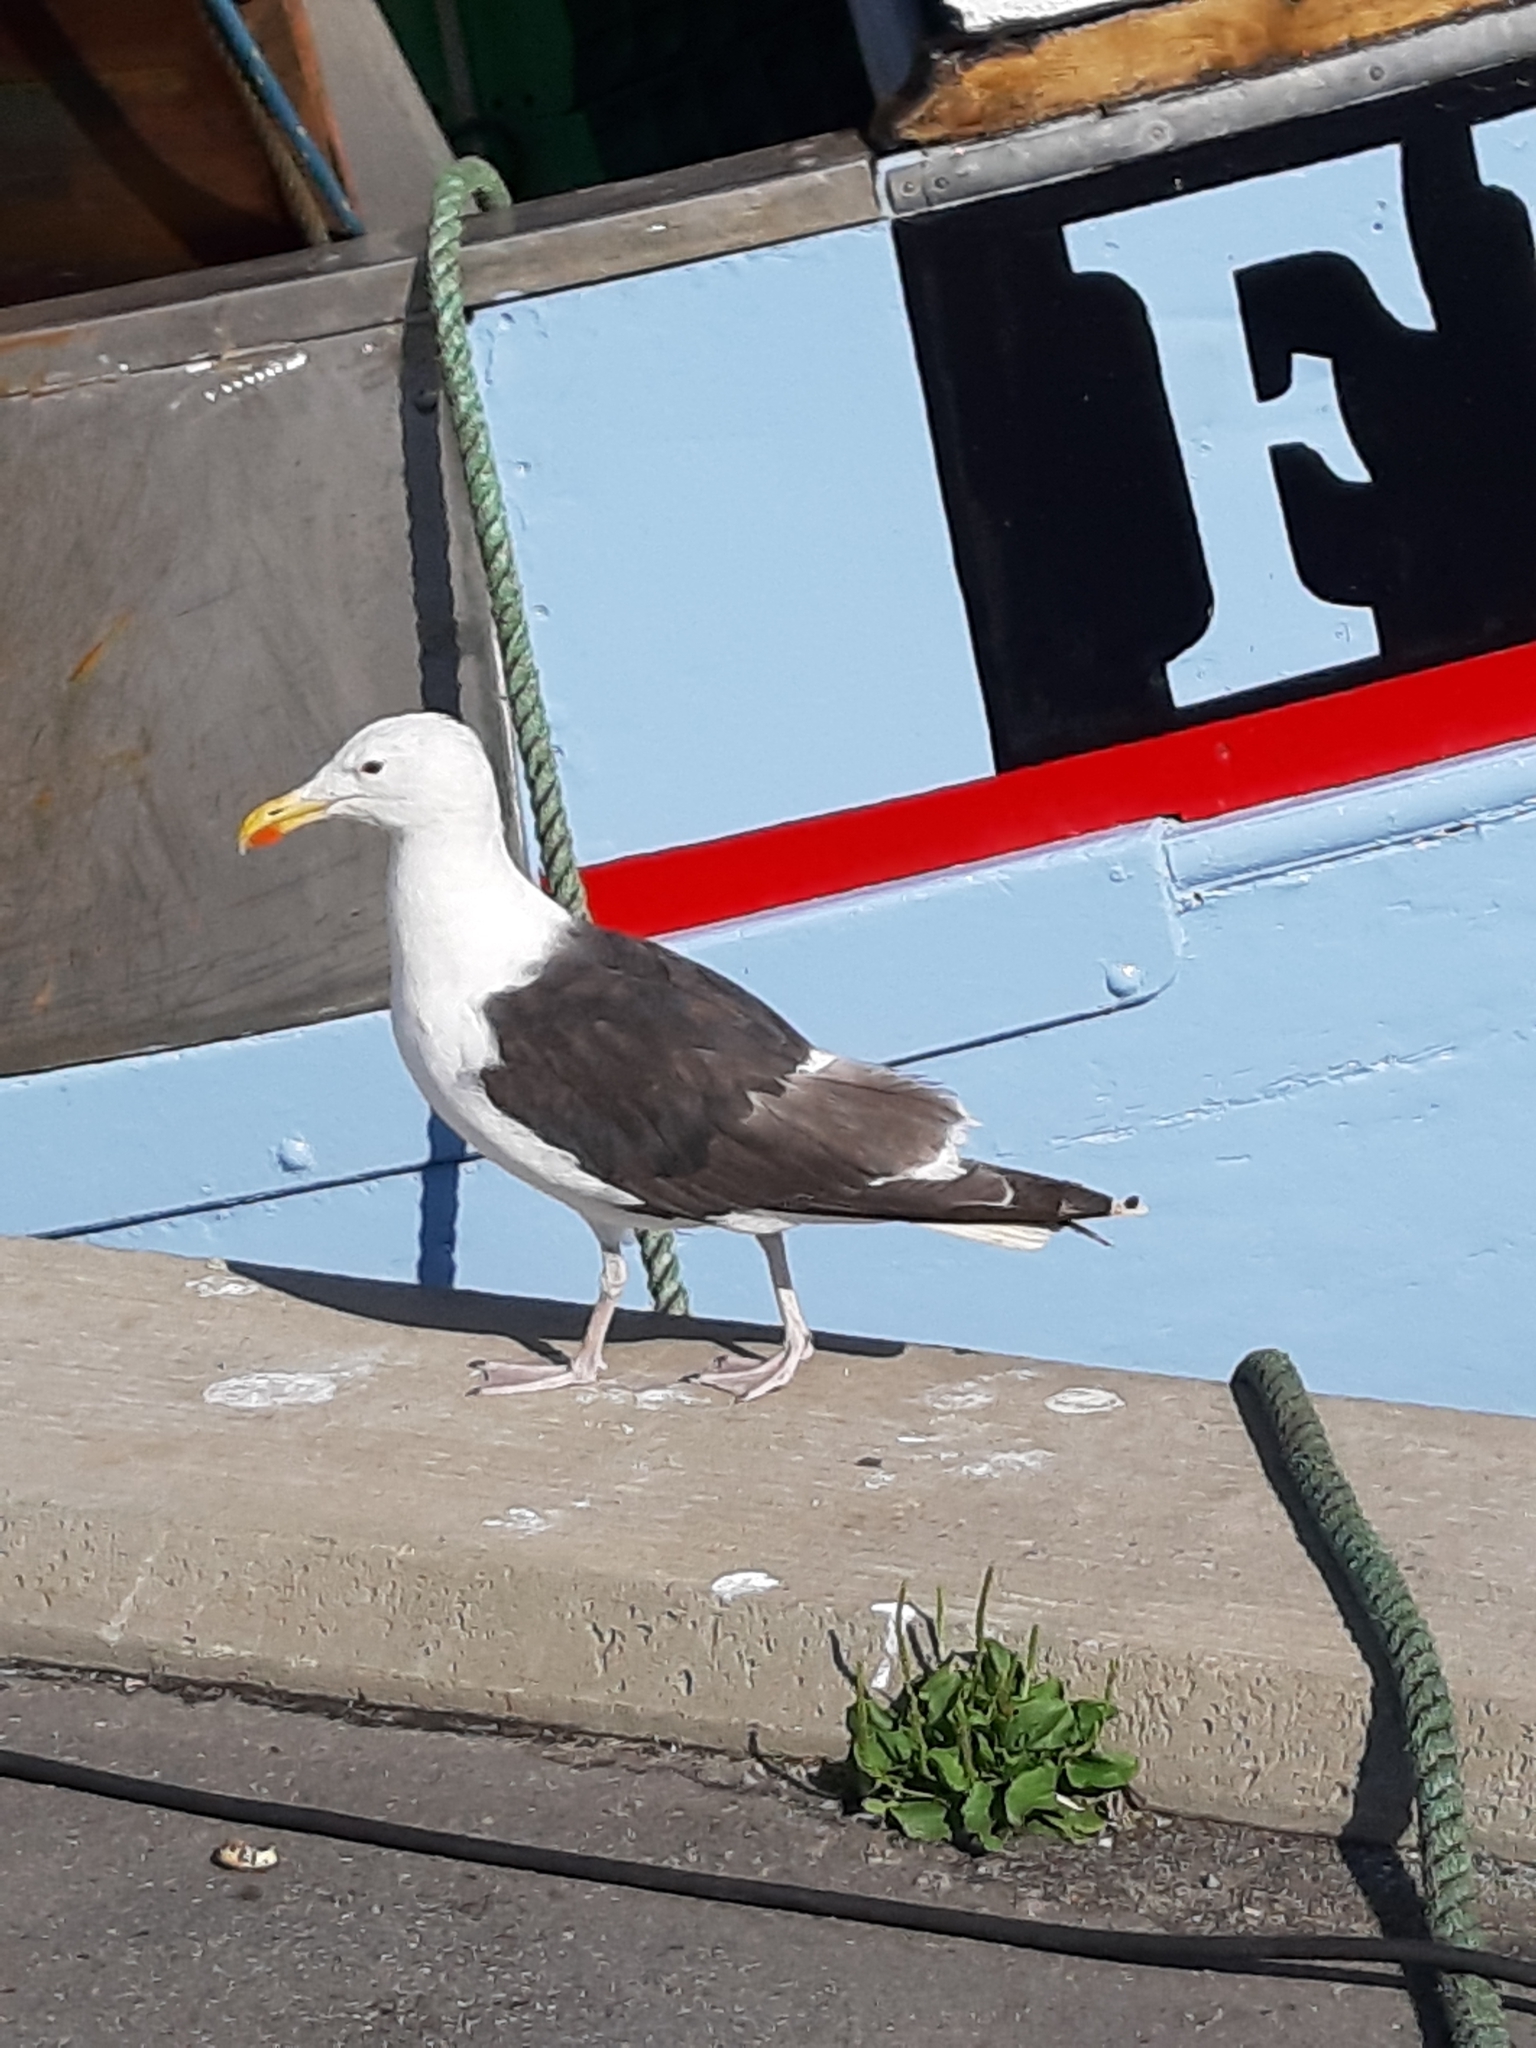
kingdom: Animalia
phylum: Chordata
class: Aves
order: Charadriiformes
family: Laridae
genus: Larus
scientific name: Larus marinus
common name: Great black-backed gull
